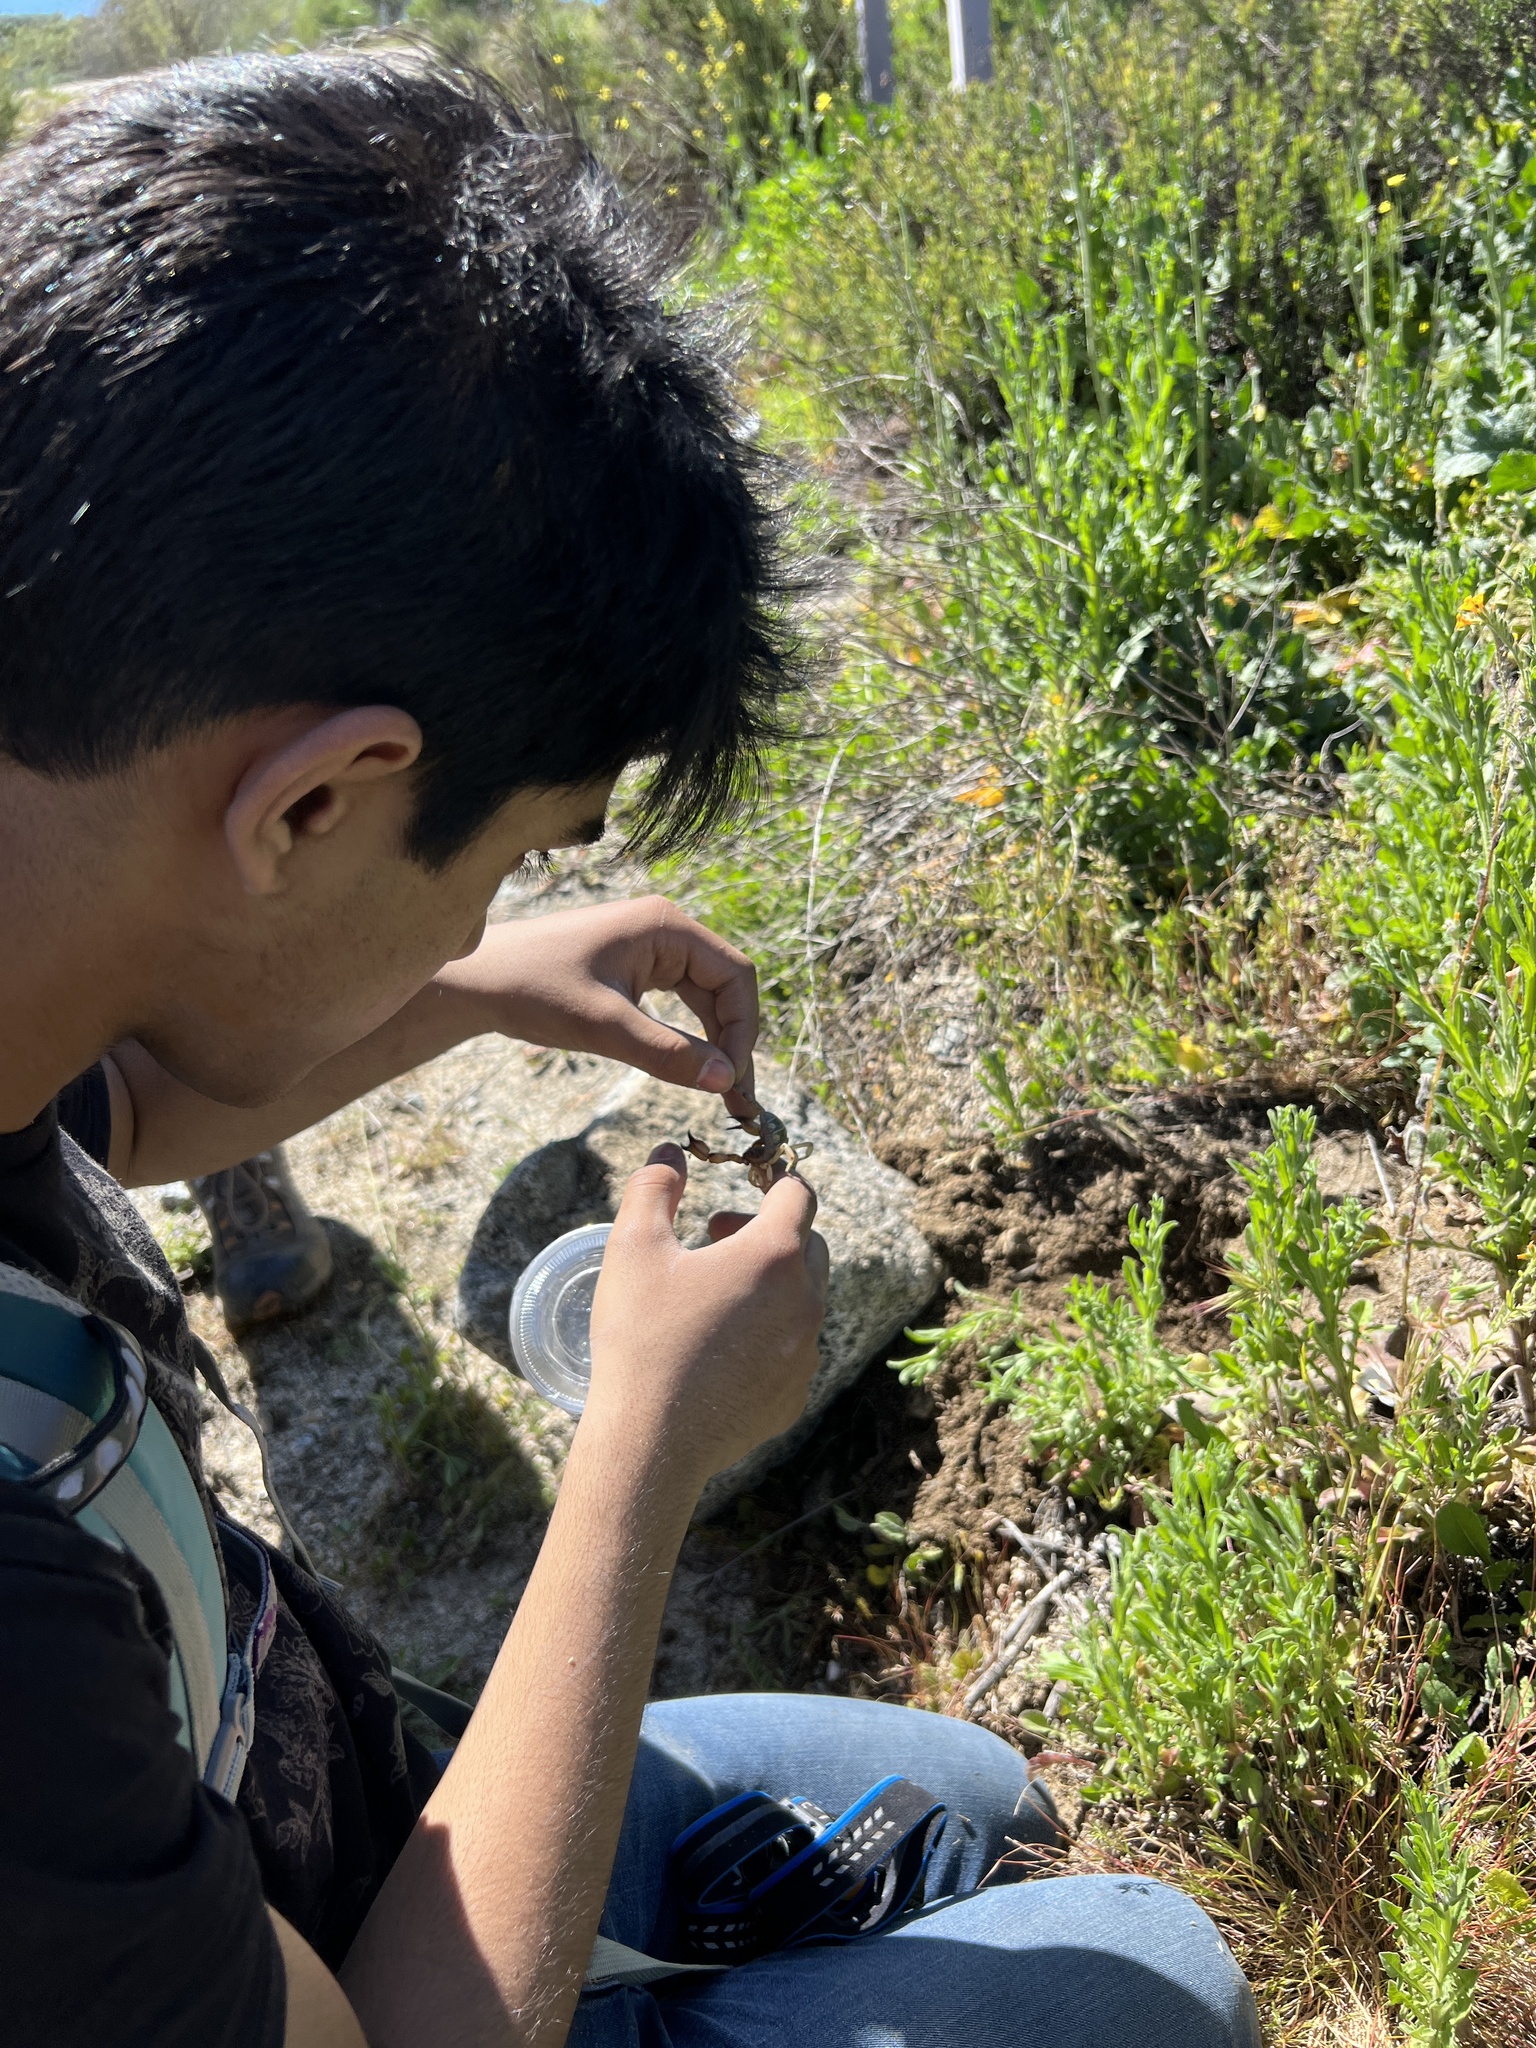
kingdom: Animalia
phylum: Arthropoda
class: Arachnida
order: Scorpiones
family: Chactidae
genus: Anuroctonus
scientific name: Anuroctonus pococki
